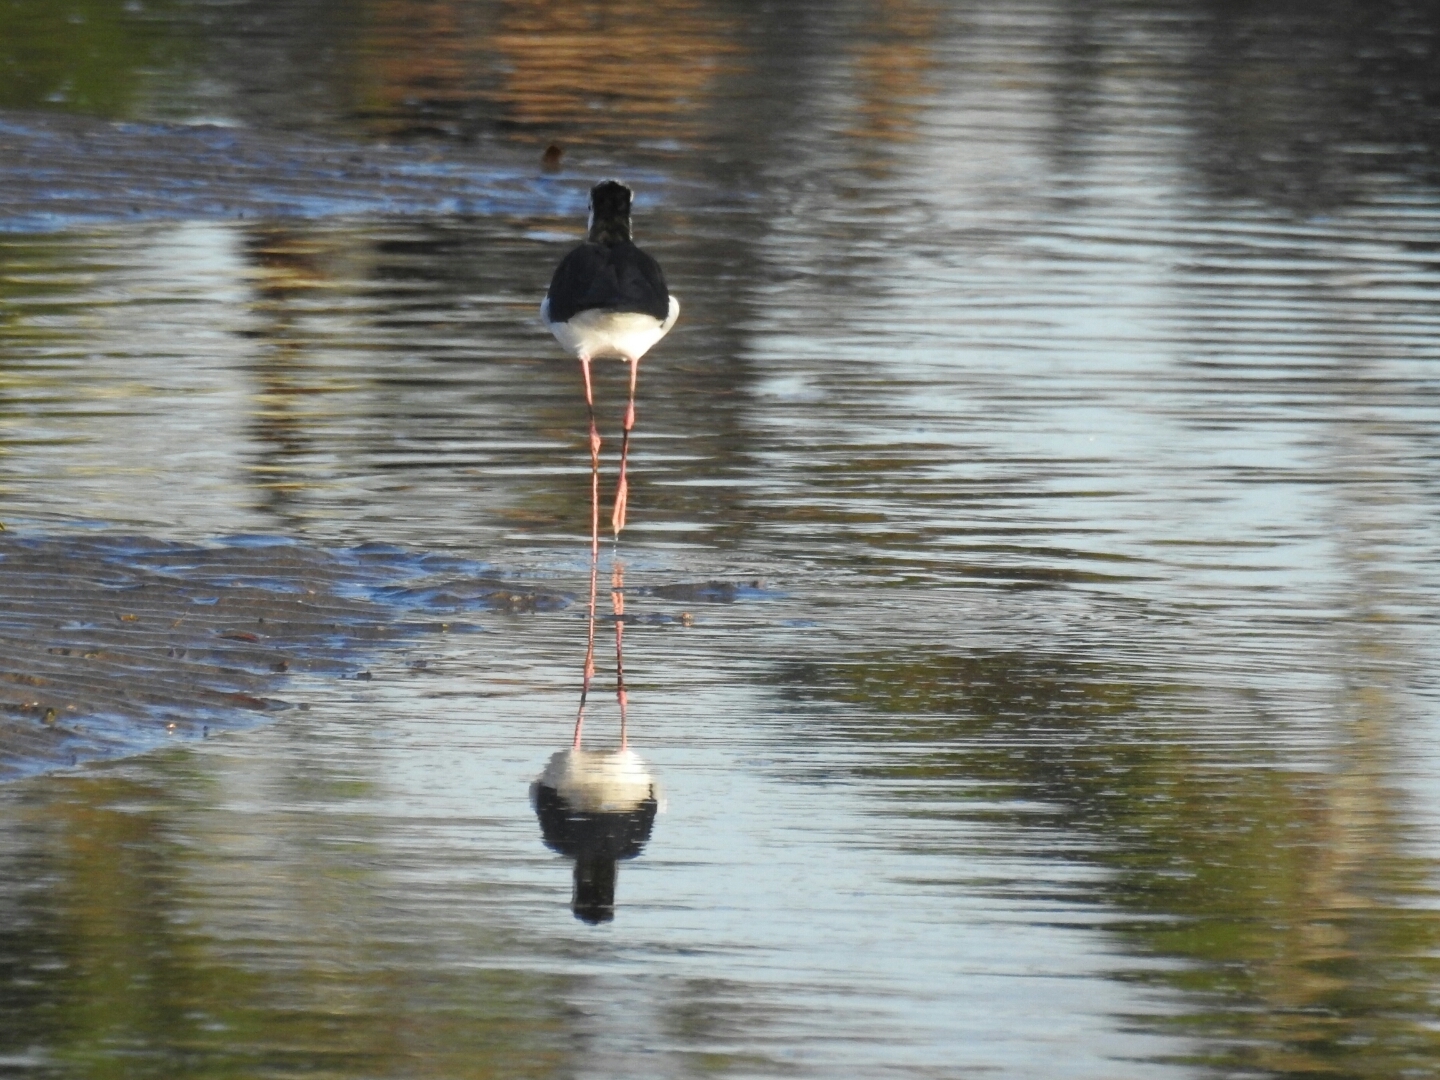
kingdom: Animalia
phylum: Chordata
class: Aves
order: Charadriiformes
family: Recurvirostridae
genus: Himantopus
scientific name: Himantopus leucocephalus
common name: White-headed stilt
